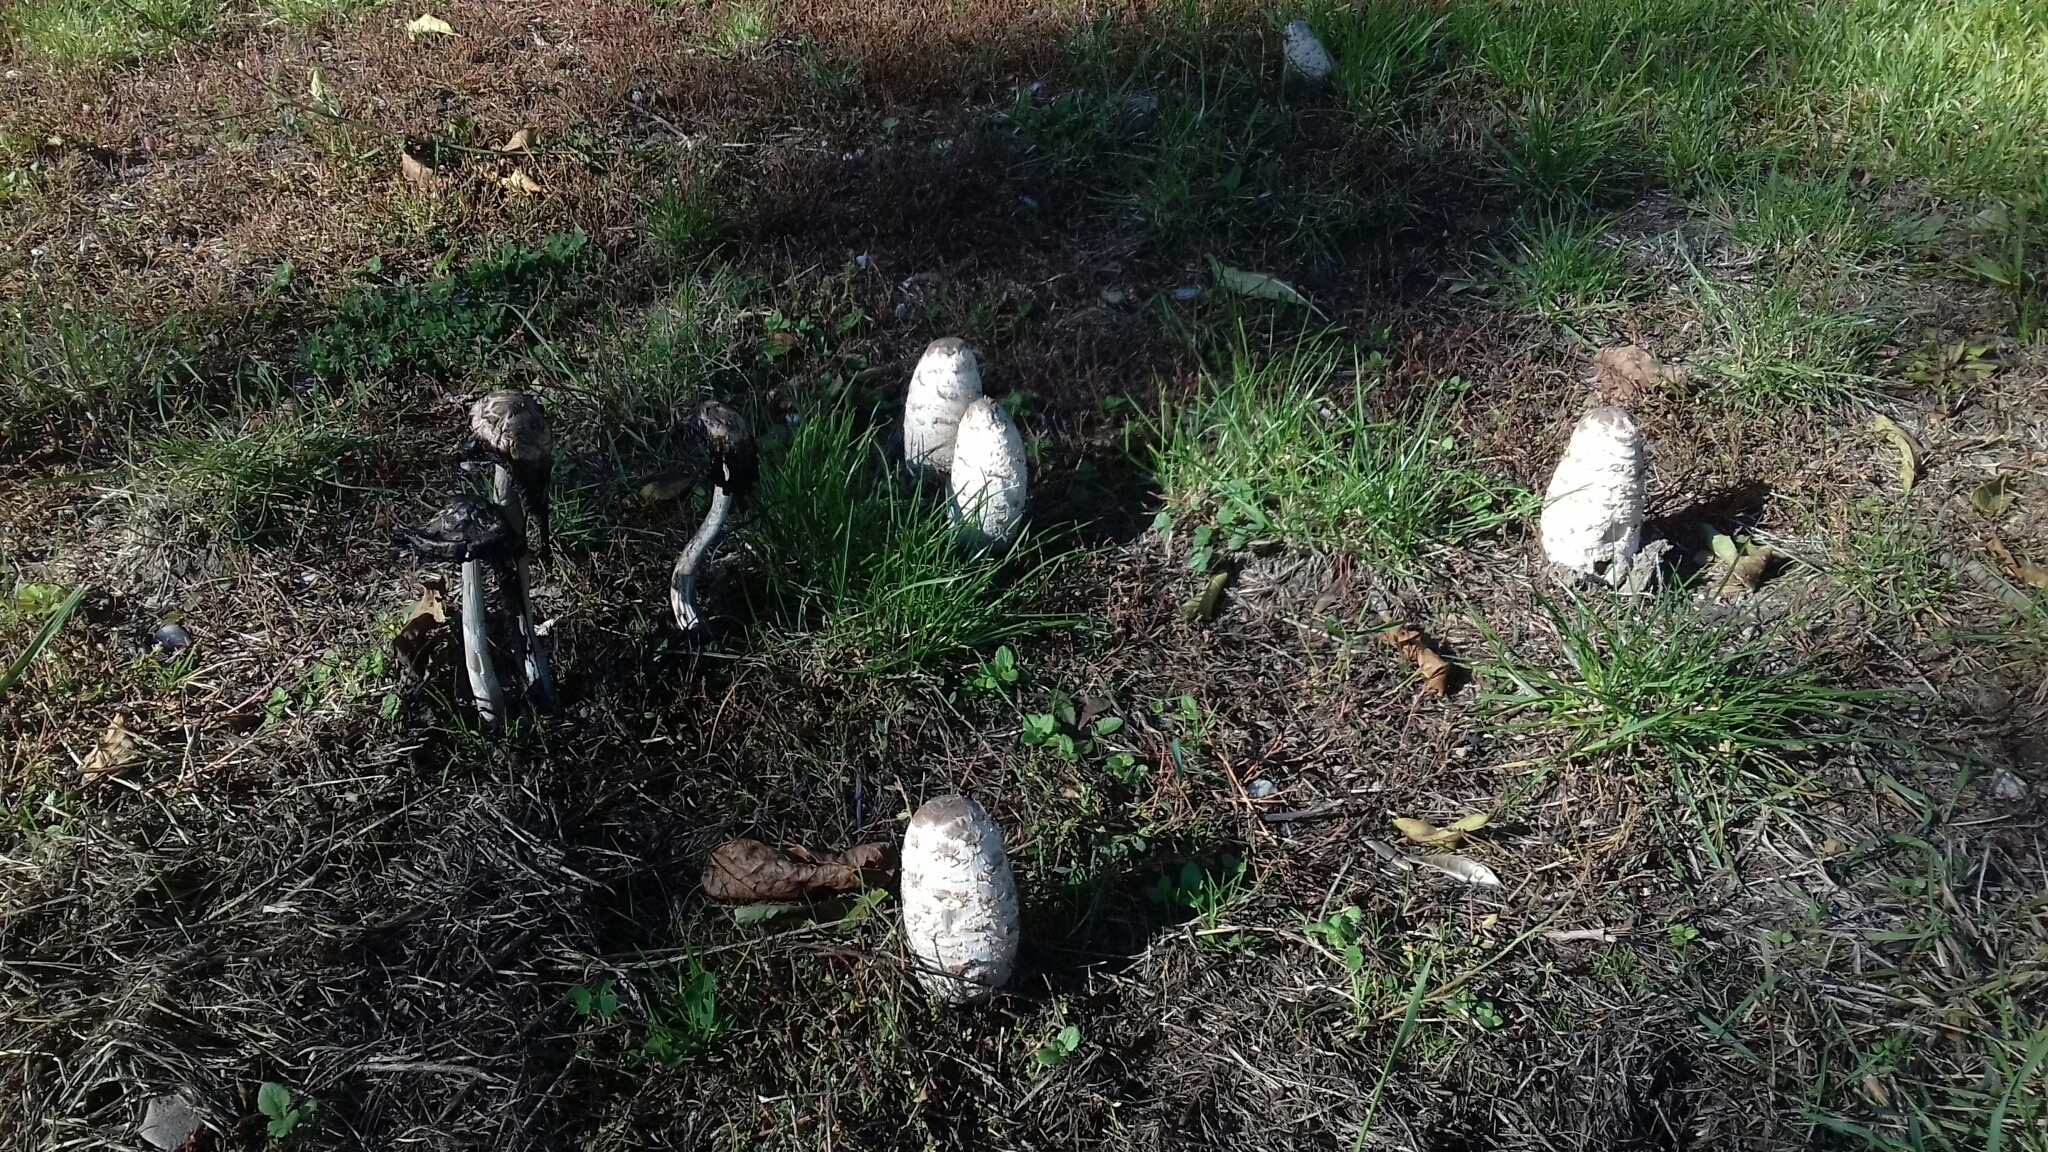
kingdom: Fungi
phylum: Basidiomycota
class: Agaricomycetes
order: Agaricales
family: Agaricaceae
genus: Coprinus
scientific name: Coprinus comatus
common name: Lawyer's wig
